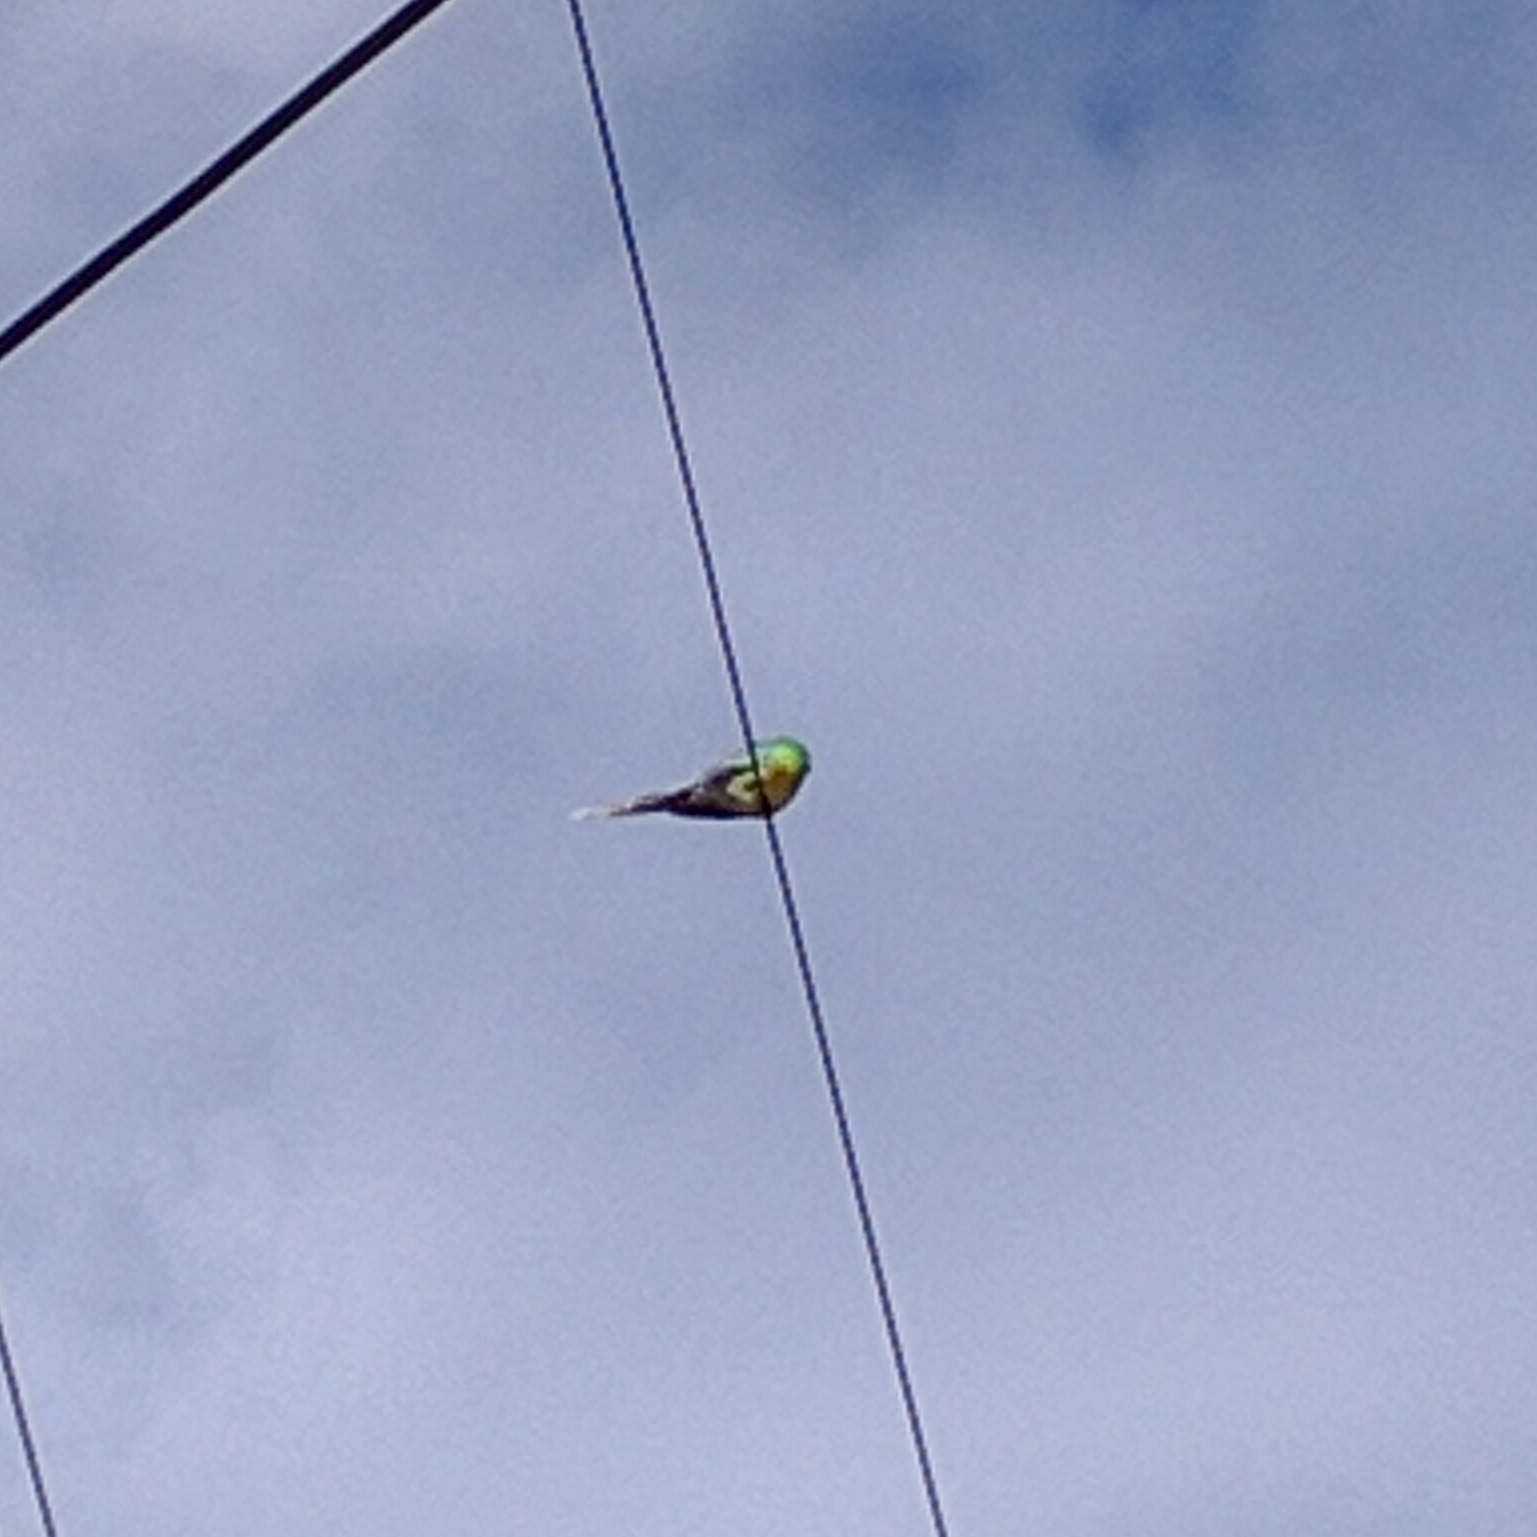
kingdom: Animalia
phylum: Chordata
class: Aves
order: Psittaciformes
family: Psittacidae
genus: Psephotus
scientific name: Psephotus haematonotus
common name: Red-rumped parrot
